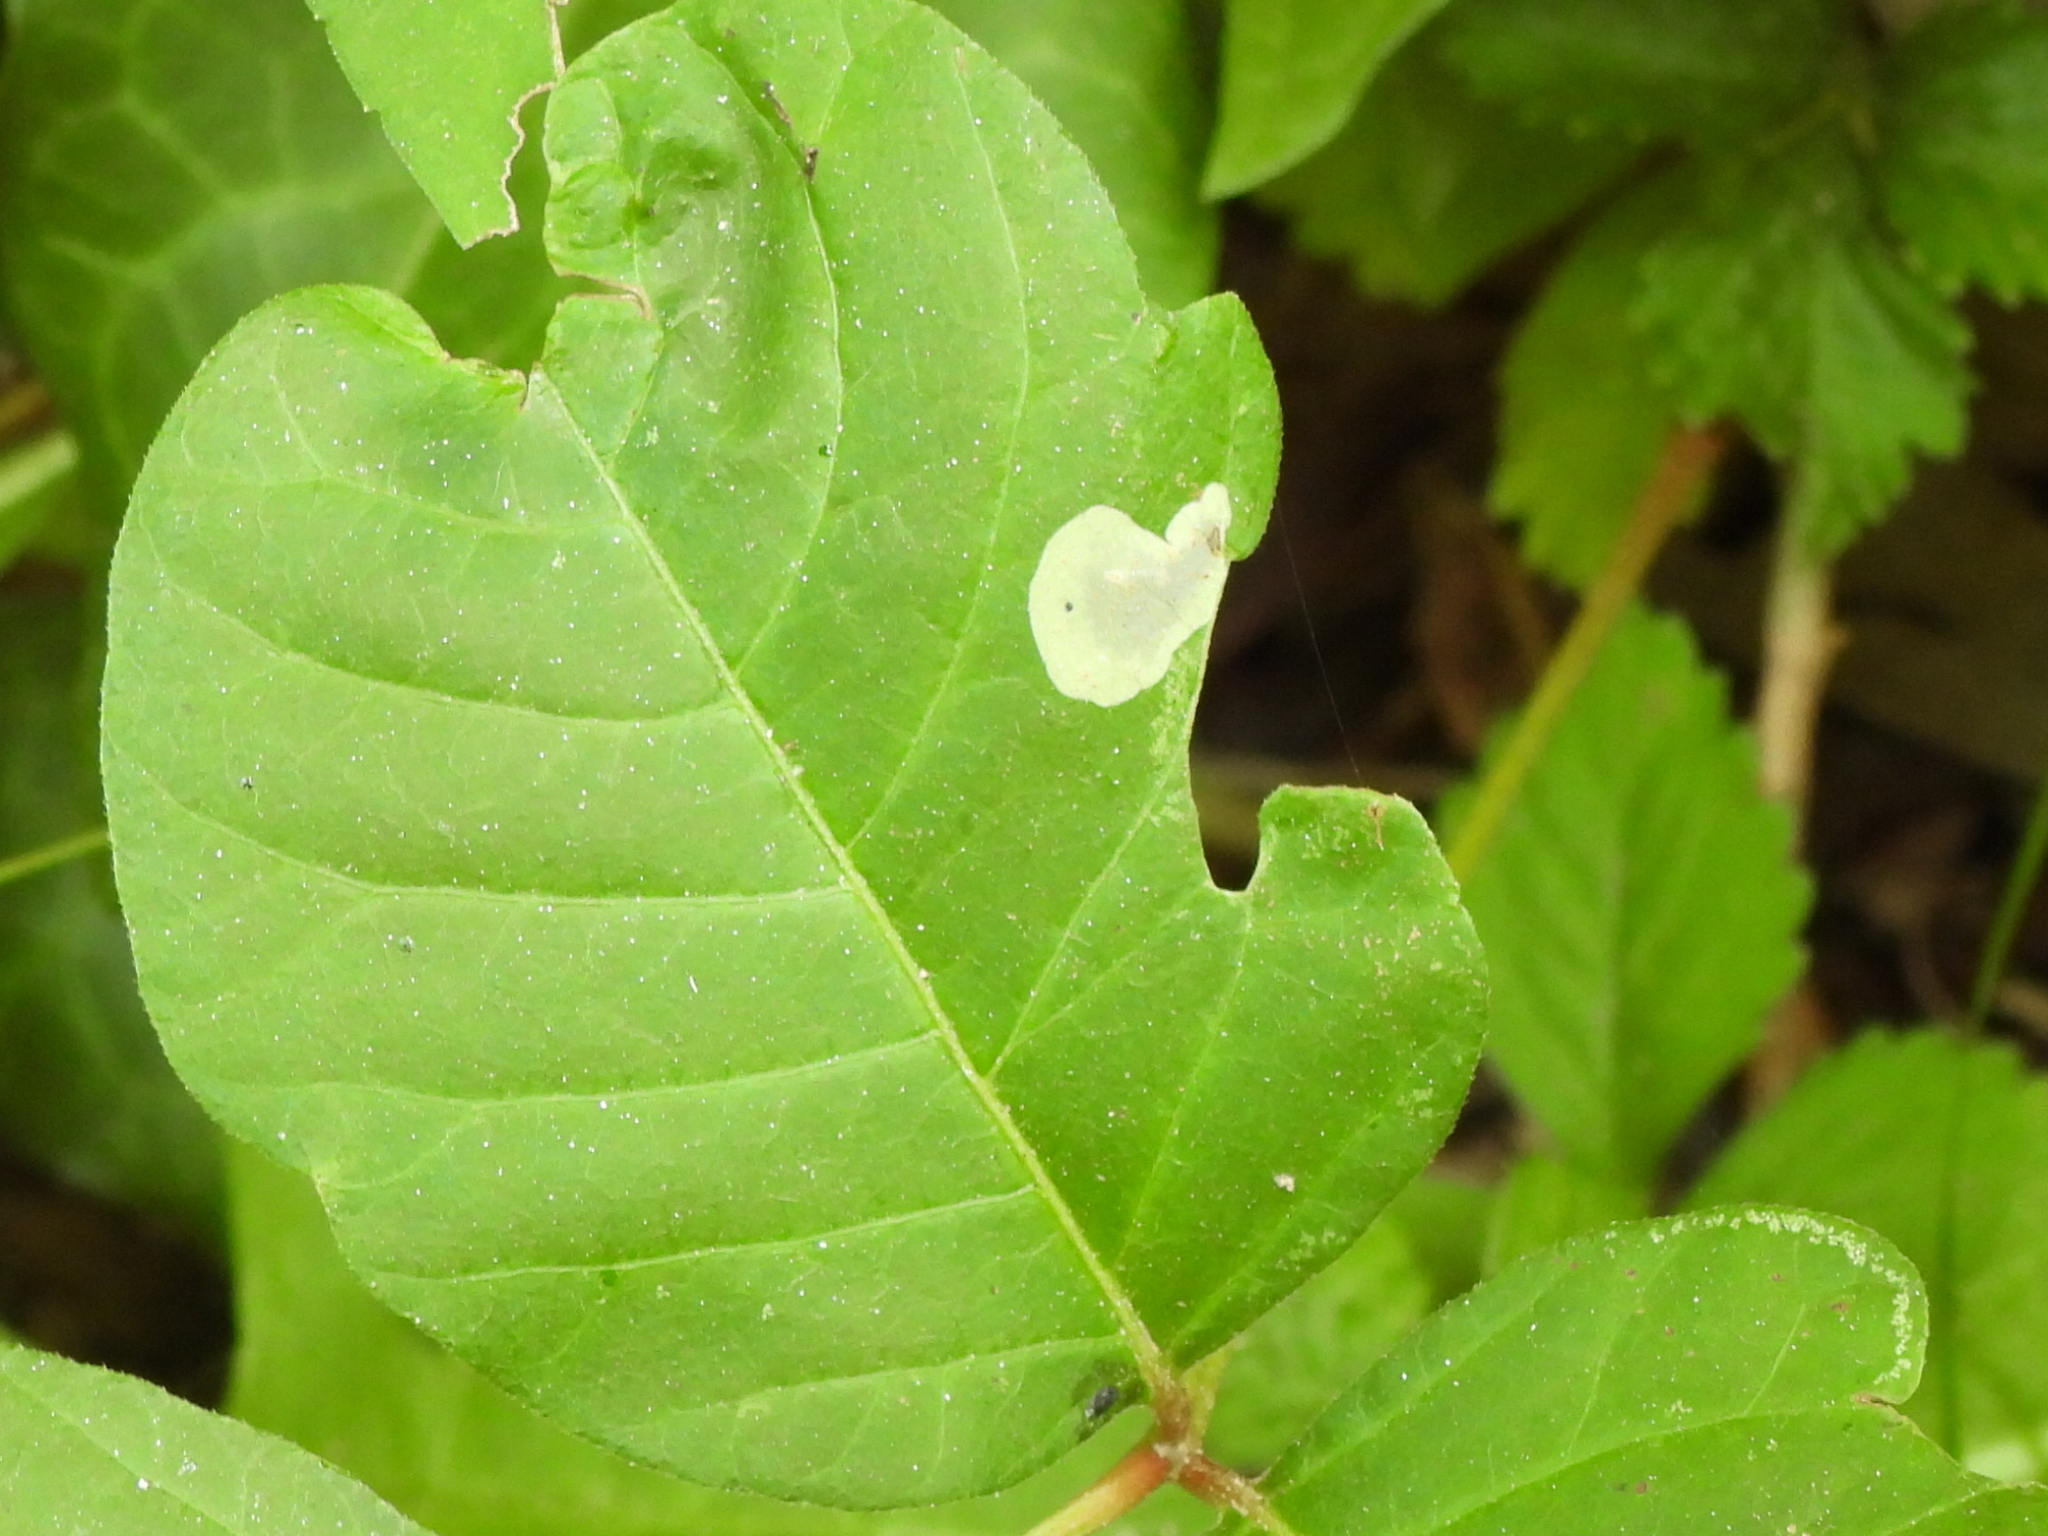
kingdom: Animalia
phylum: Arthropoda
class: Insecta
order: Lepidoptera
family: Gracillariidae
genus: Cameraria
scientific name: Cameraria guttifinitella
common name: Poison ivy leaf-miner moth
